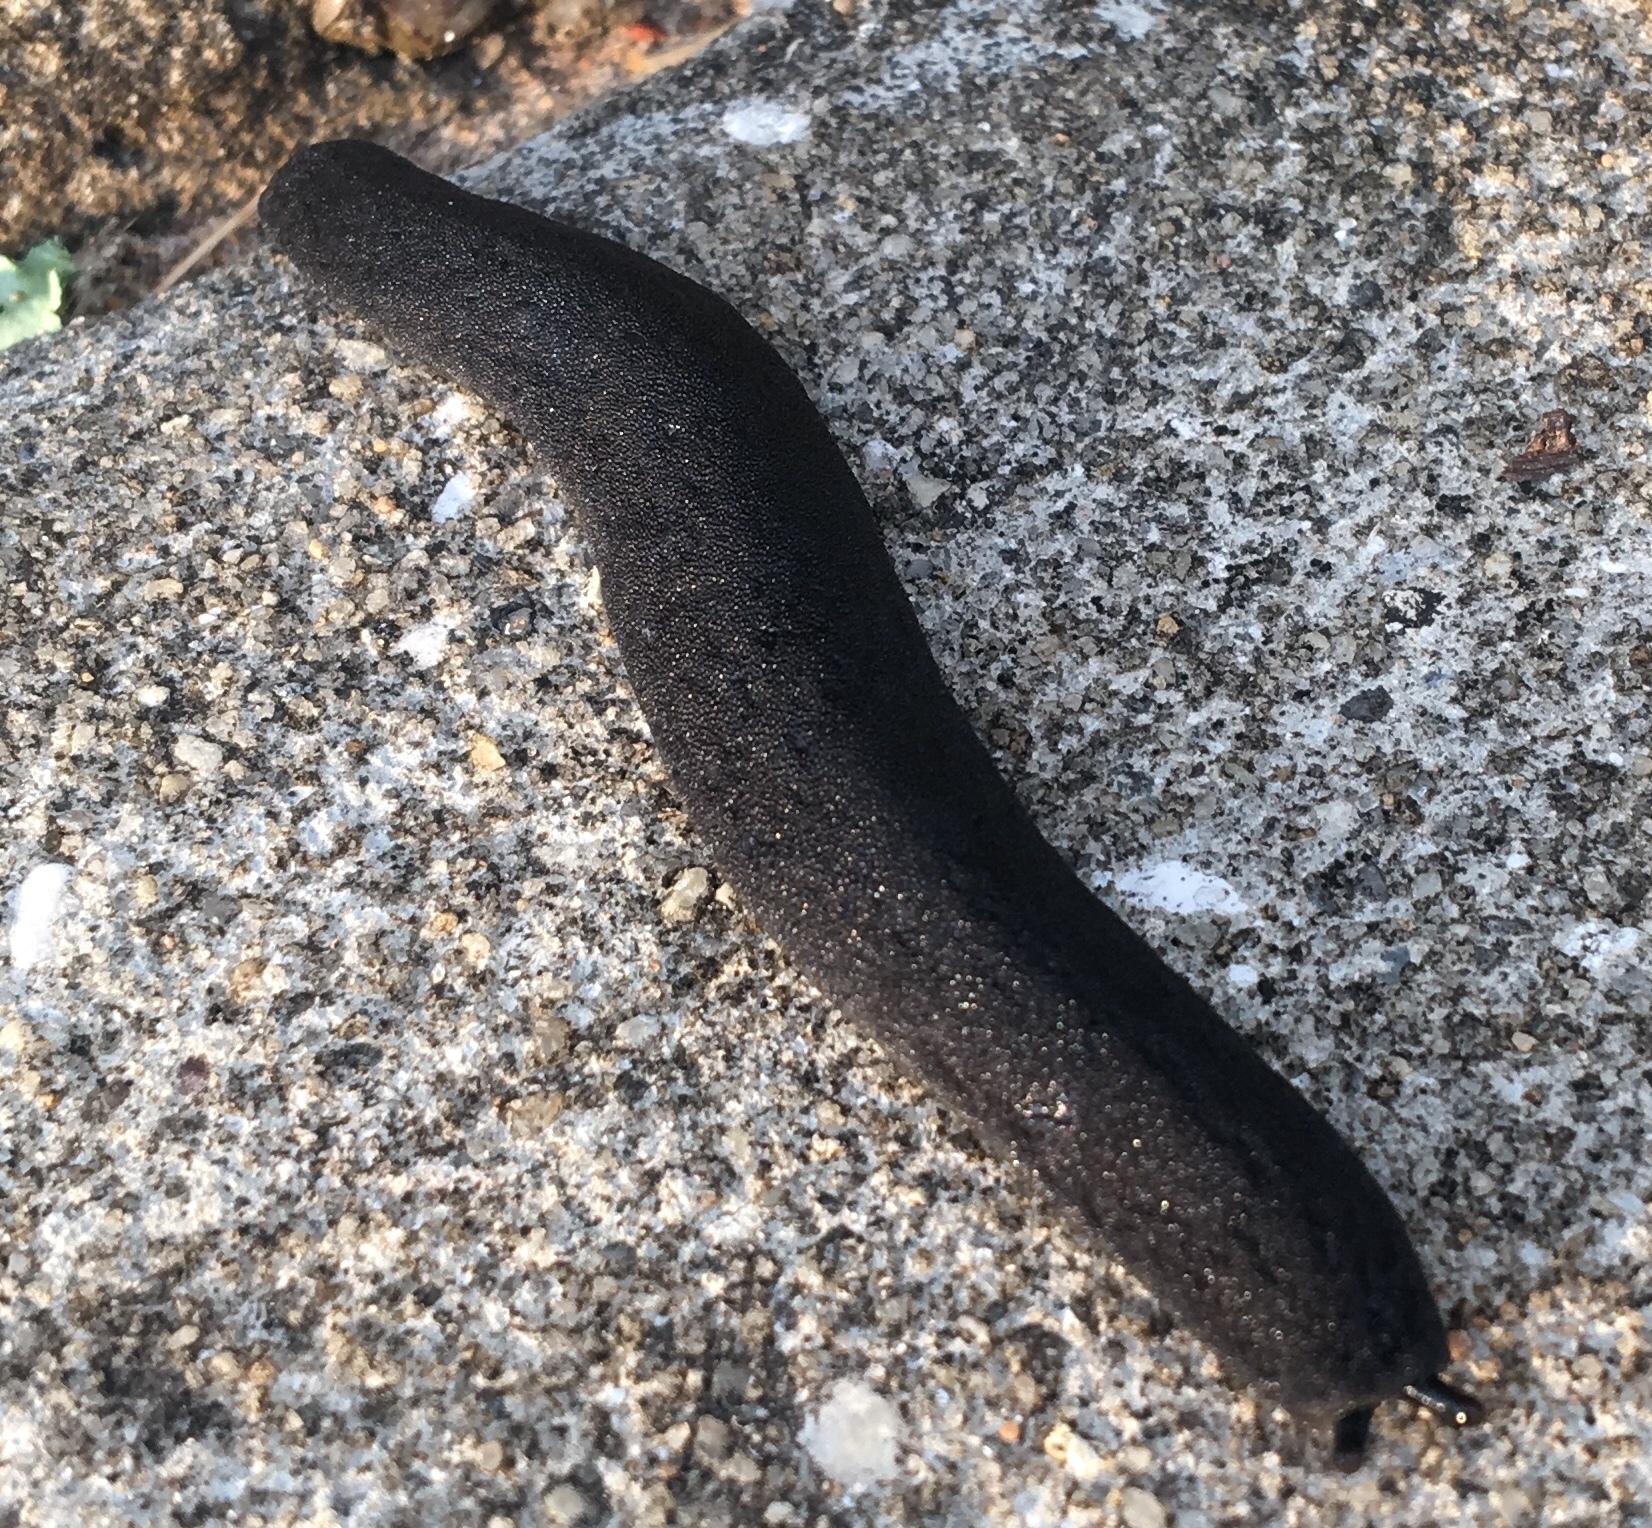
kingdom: Animalia
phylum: Mollusca
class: Gastropoda
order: Systellommatophora
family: Veronicellidae
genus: Belocaulus
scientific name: Belocaulus angustipes
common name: Black velvet leatherleaf slug
